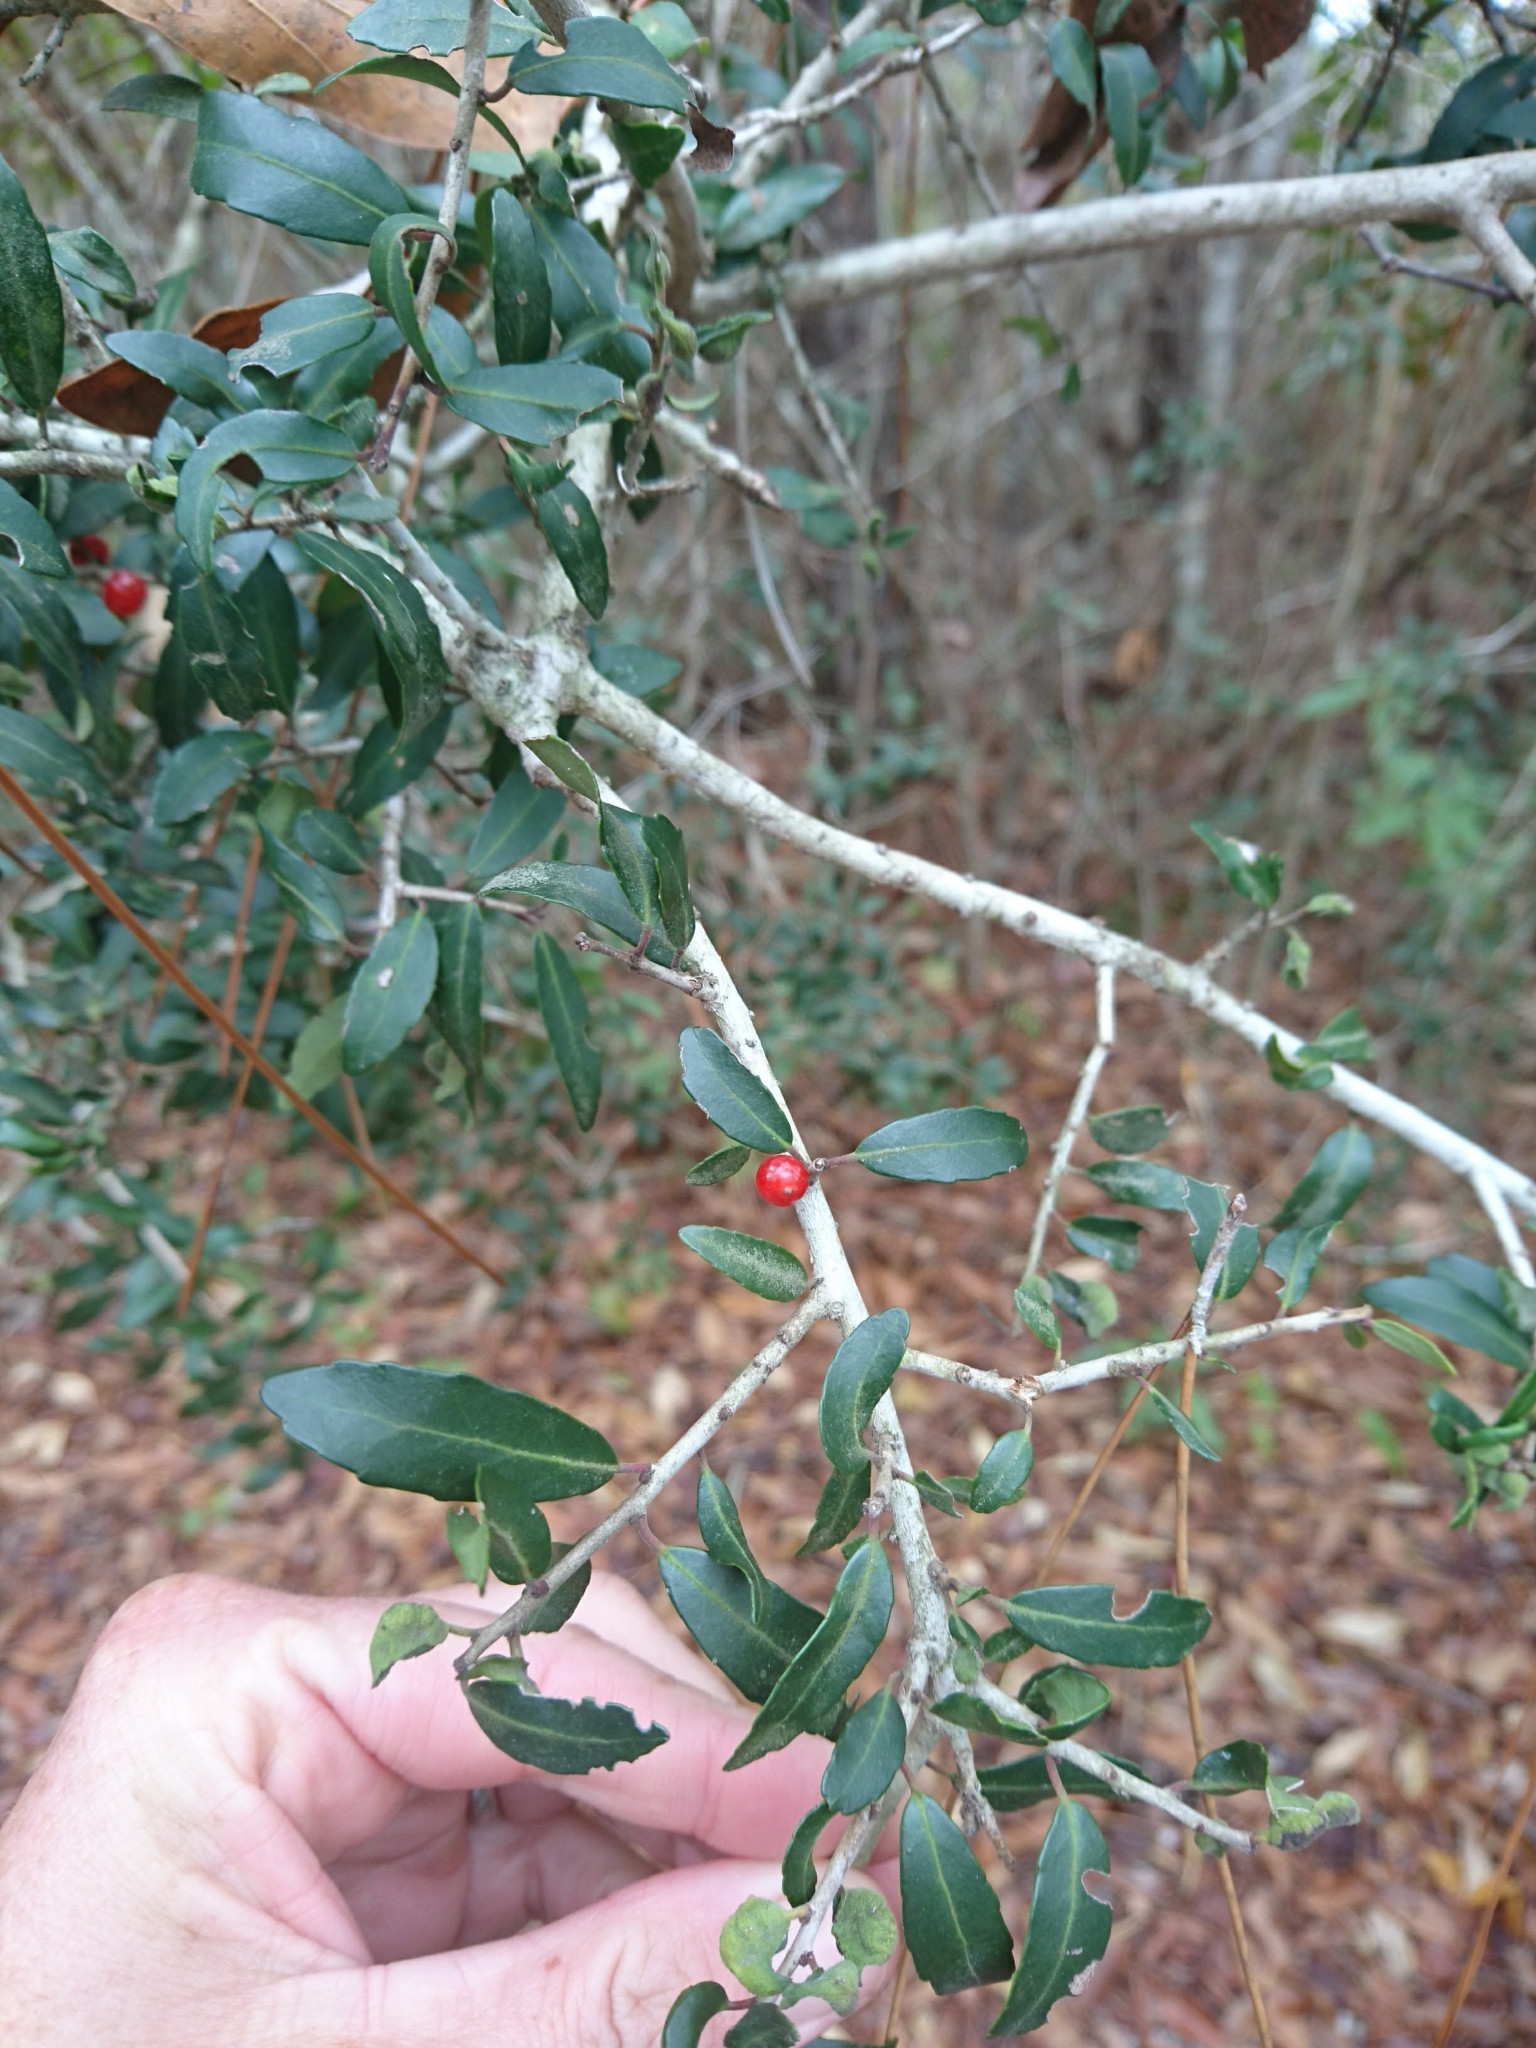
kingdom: Plantae
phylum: Tracheophyta
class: Magnoliopsida
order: Aquifoliales
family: Aquifoliaceae
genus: Ilex
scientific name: Ilex vomitoria
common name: Yaupon holly
